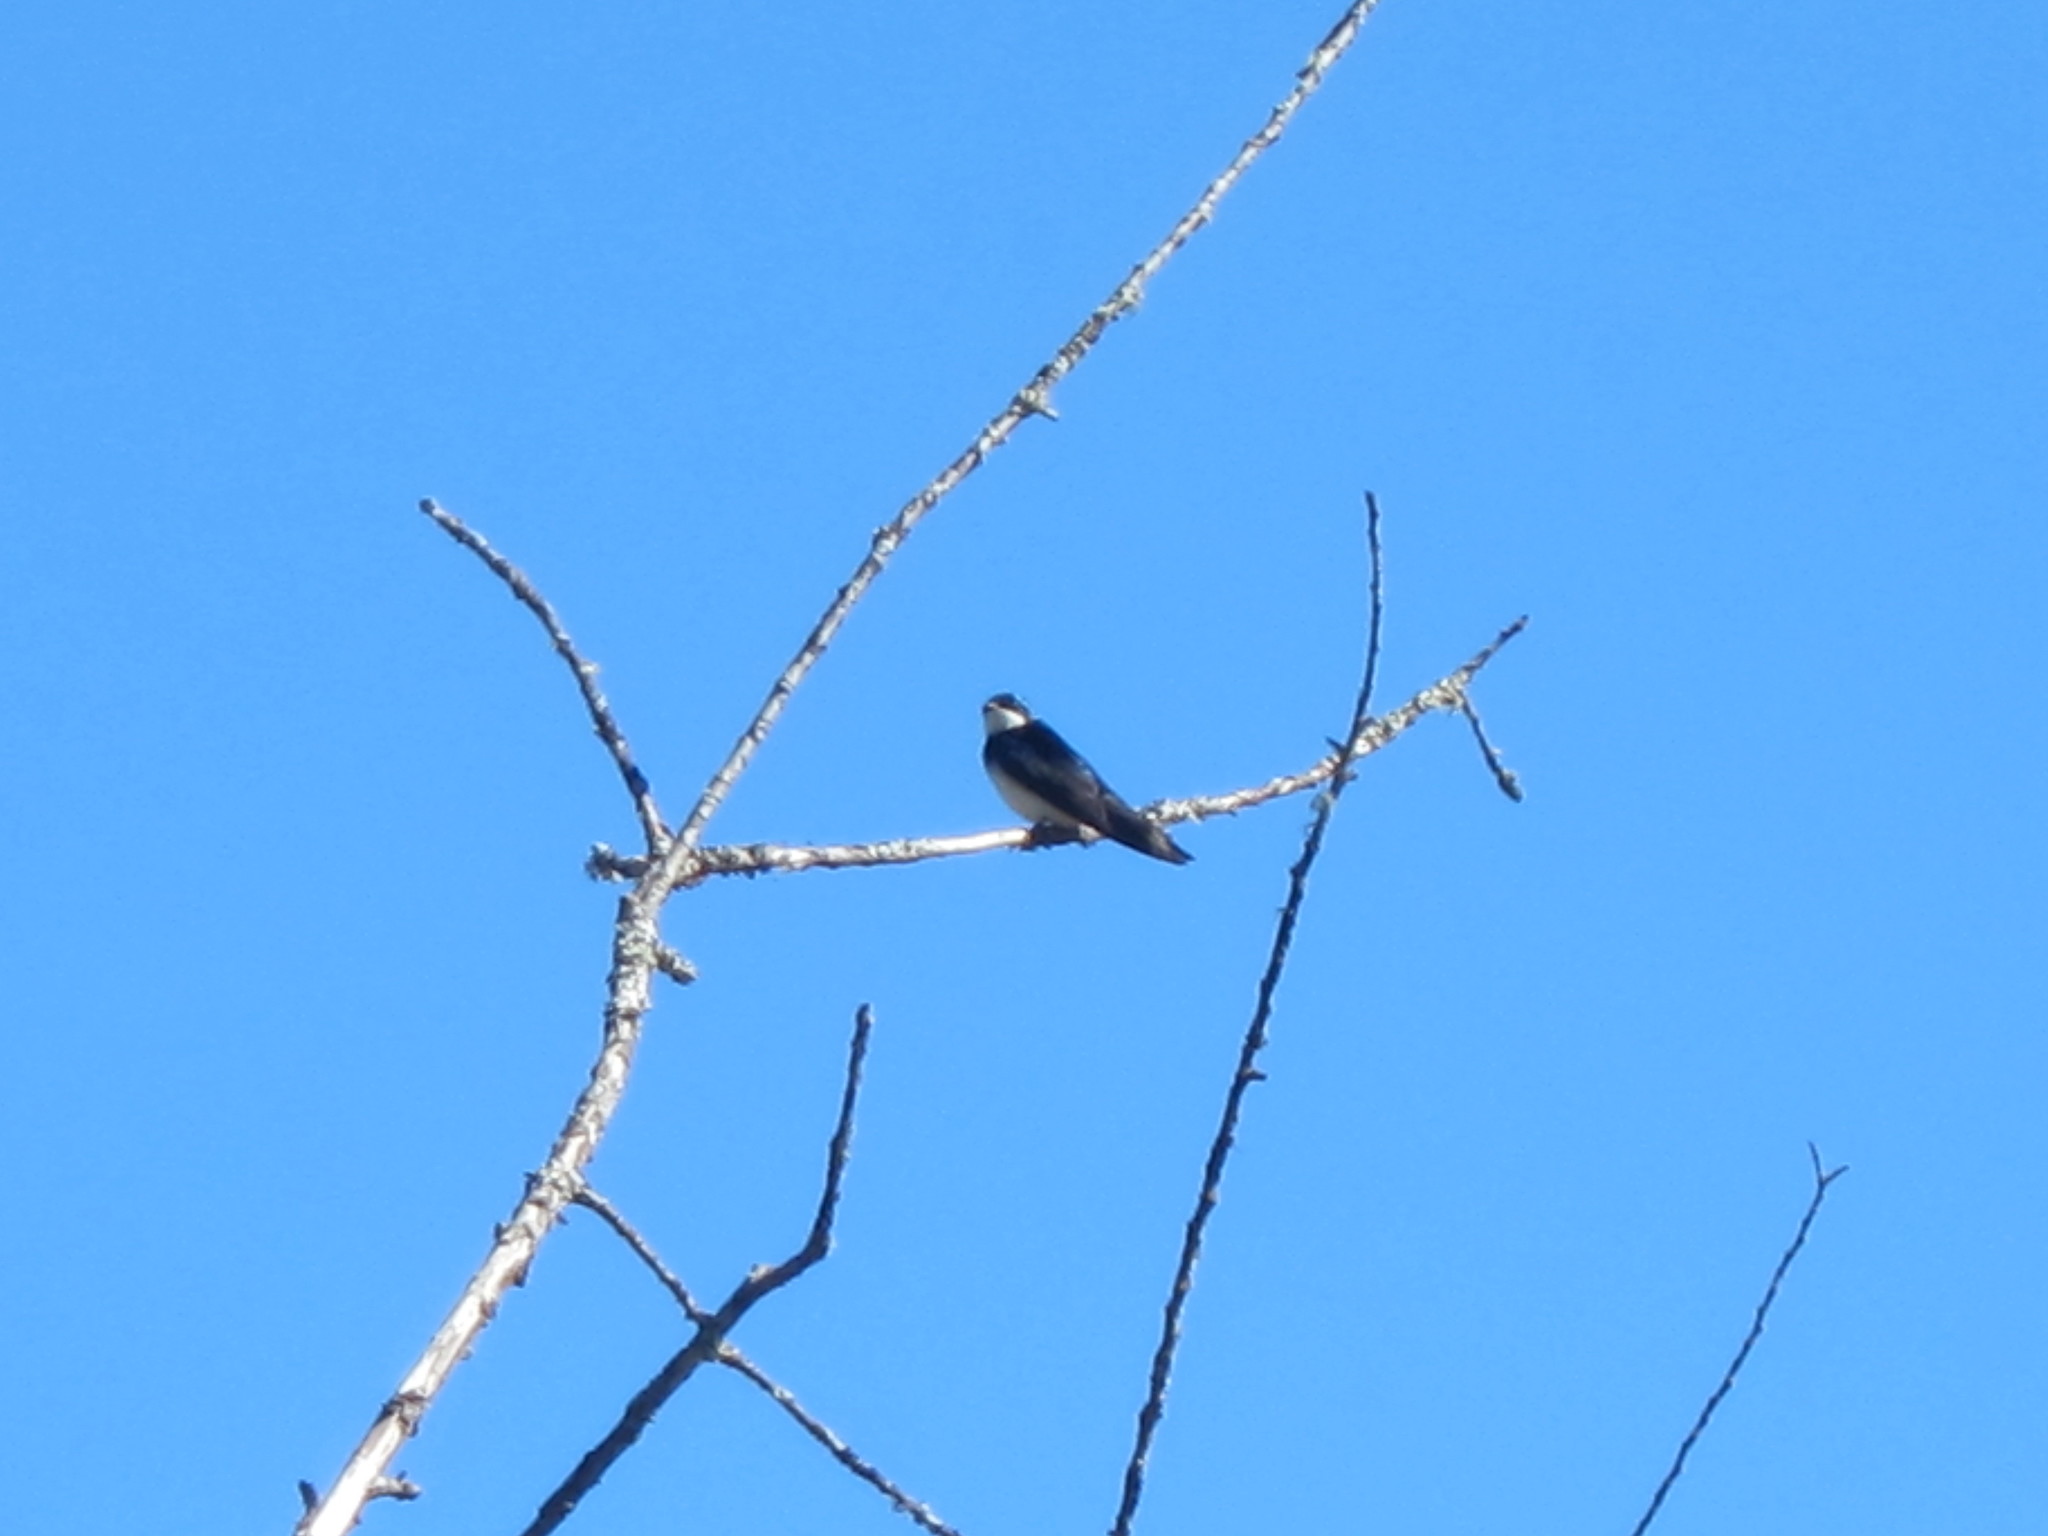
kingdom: Animalia
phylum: Chordata
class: Aves
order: Passeriformes
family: Hirundinidae
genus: Tachycineta
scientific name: Tachycineta bicolor
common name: Tree swallow
